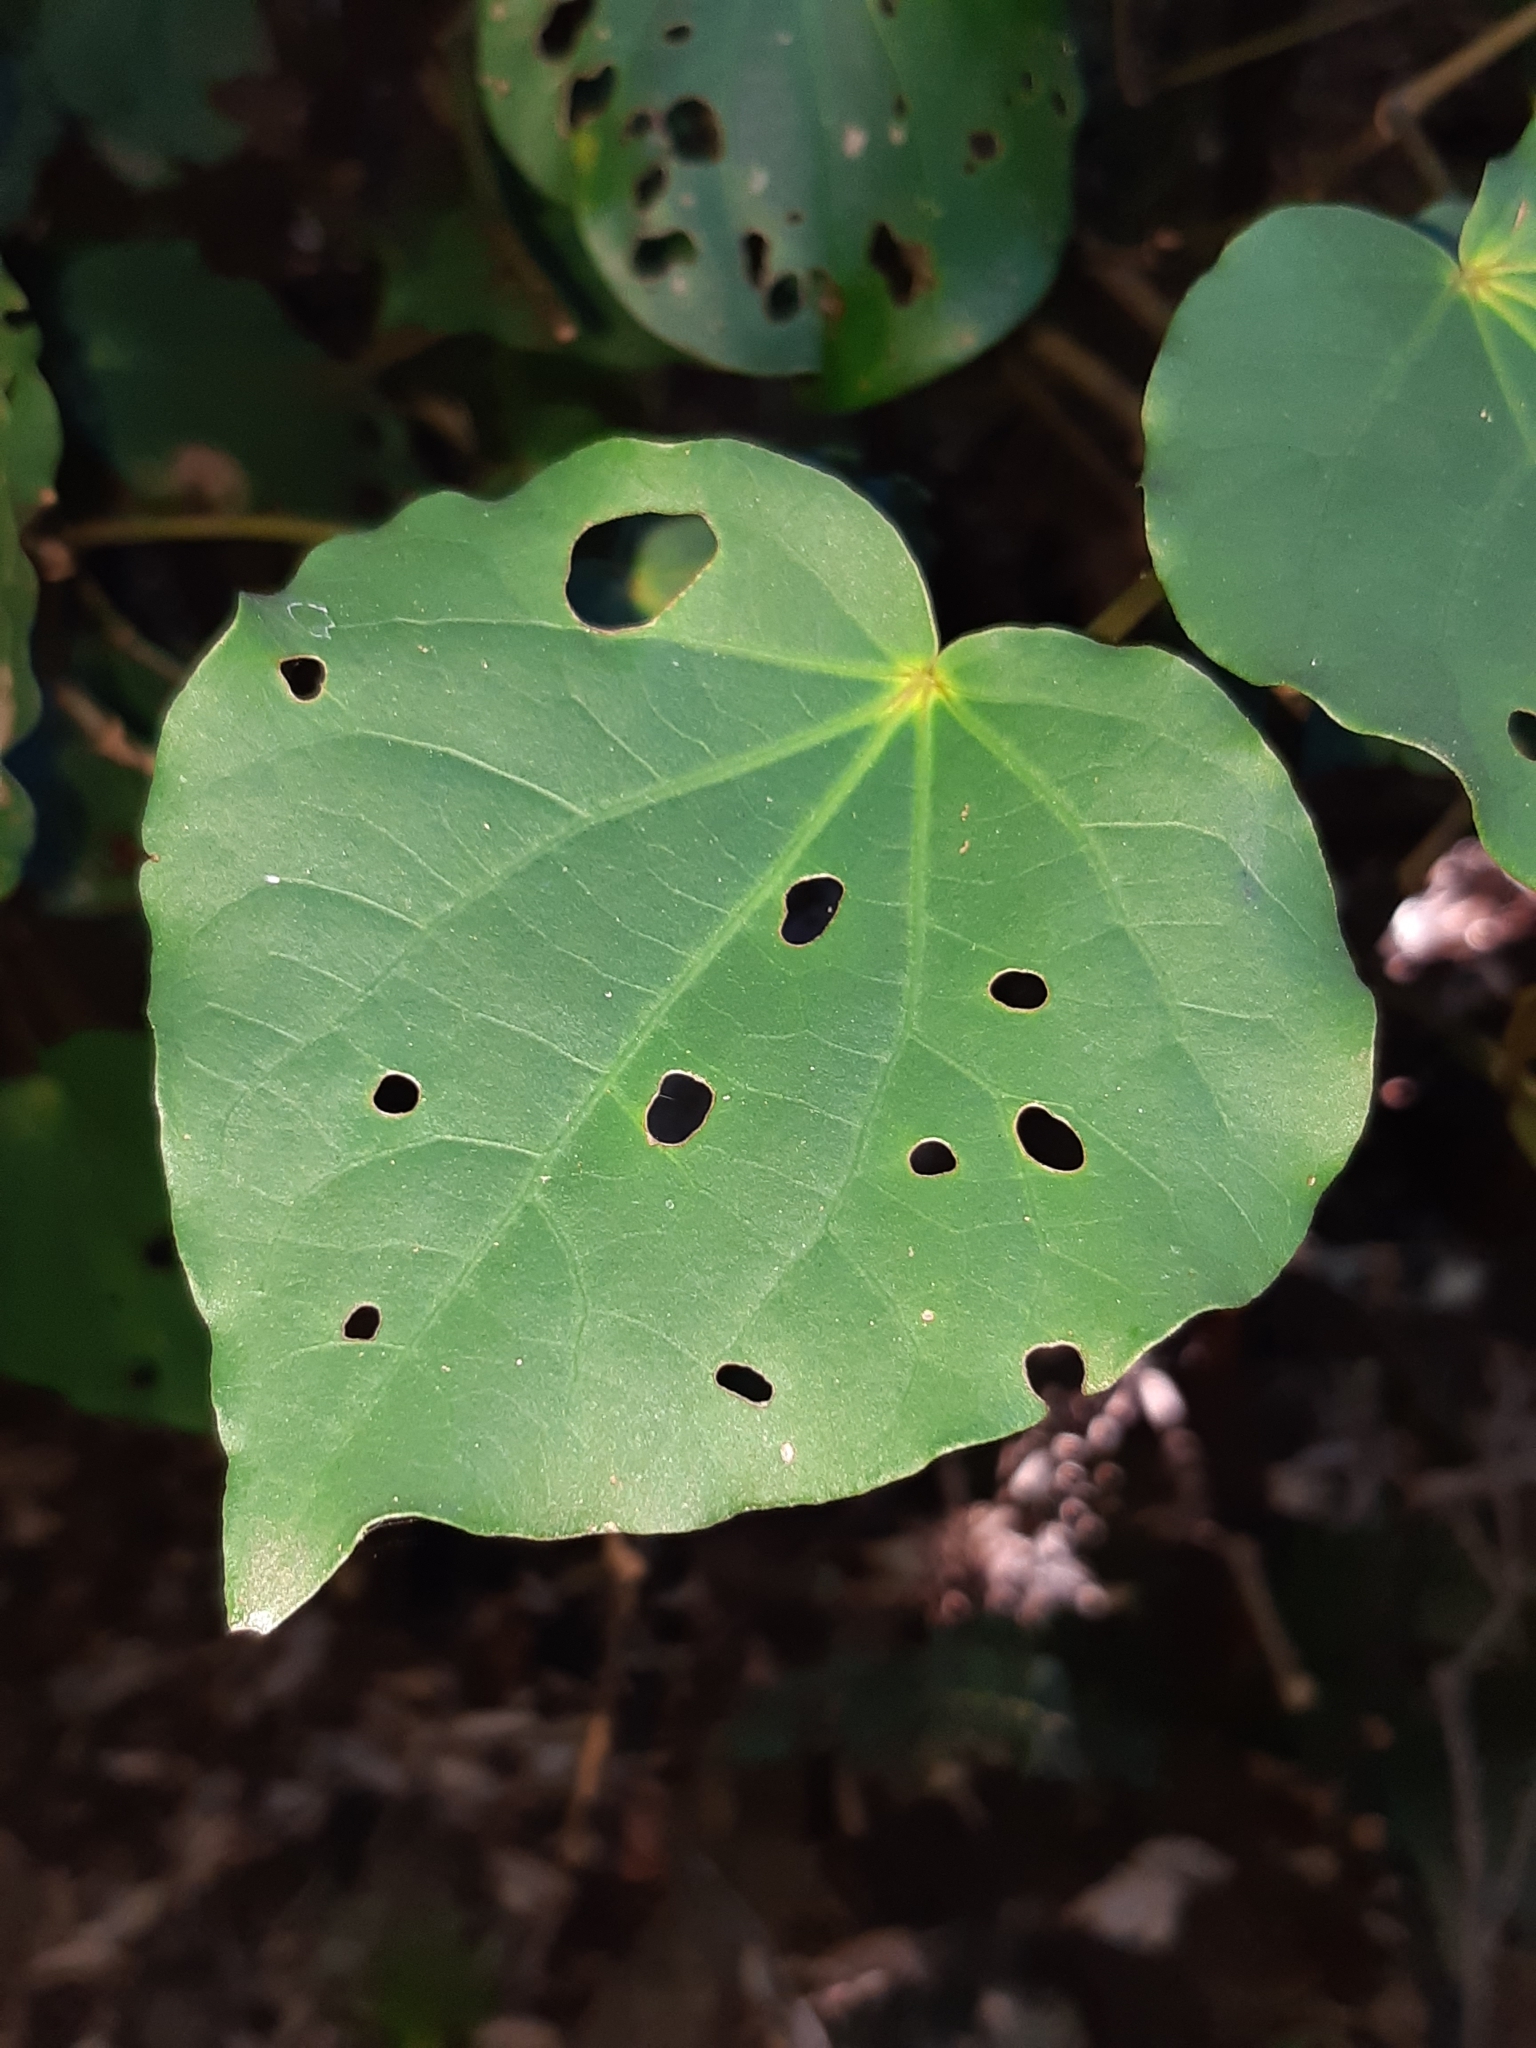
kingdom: Plantae
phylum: Tracheophyta
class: Magnoliopsida
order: Piperales
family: Piperaceae
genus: Macropiper
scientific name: Macropiper excelsum
